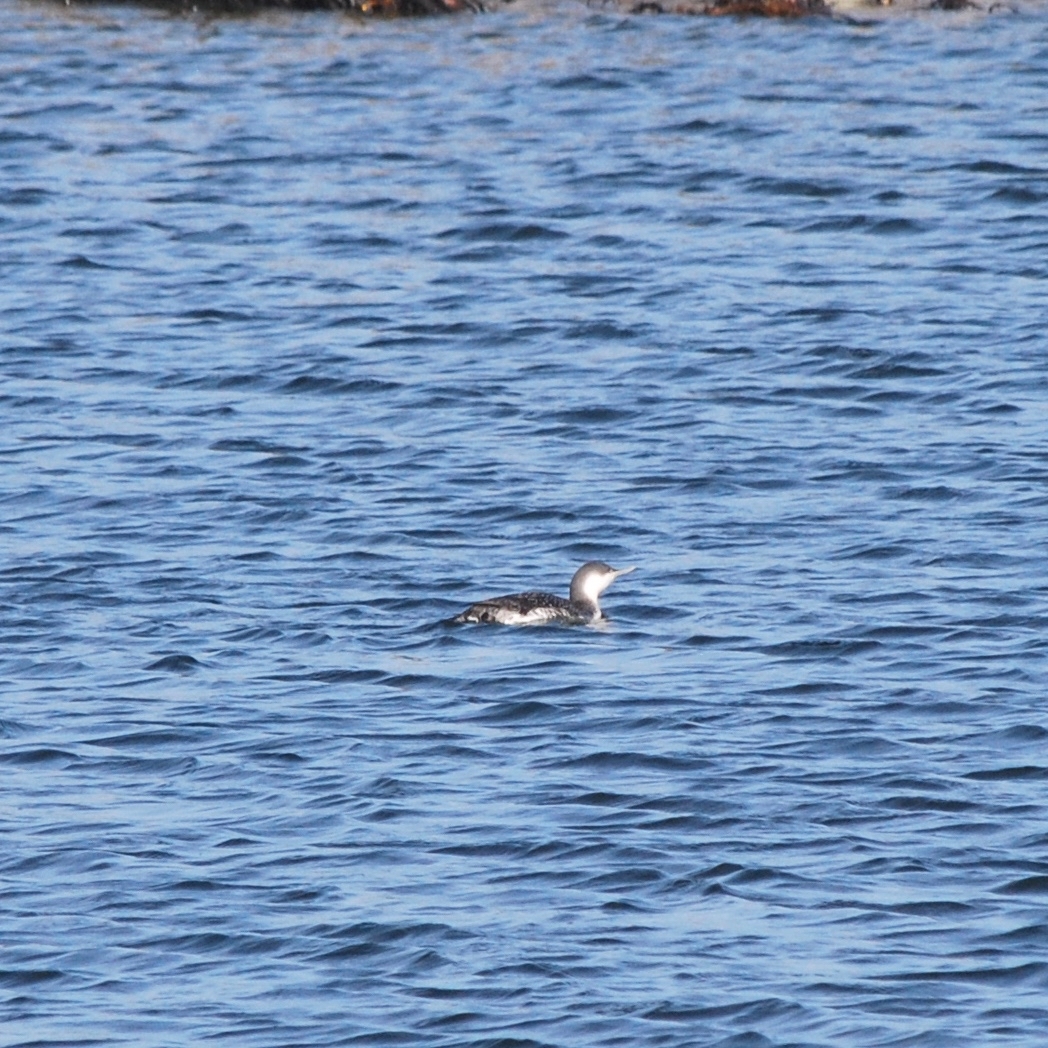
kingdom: Animalia
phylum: Chordata
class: Aves
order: Gaviiformes
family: Gaviidae
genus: Gavia
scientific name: Gavia stellata
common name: Red-throated loon
